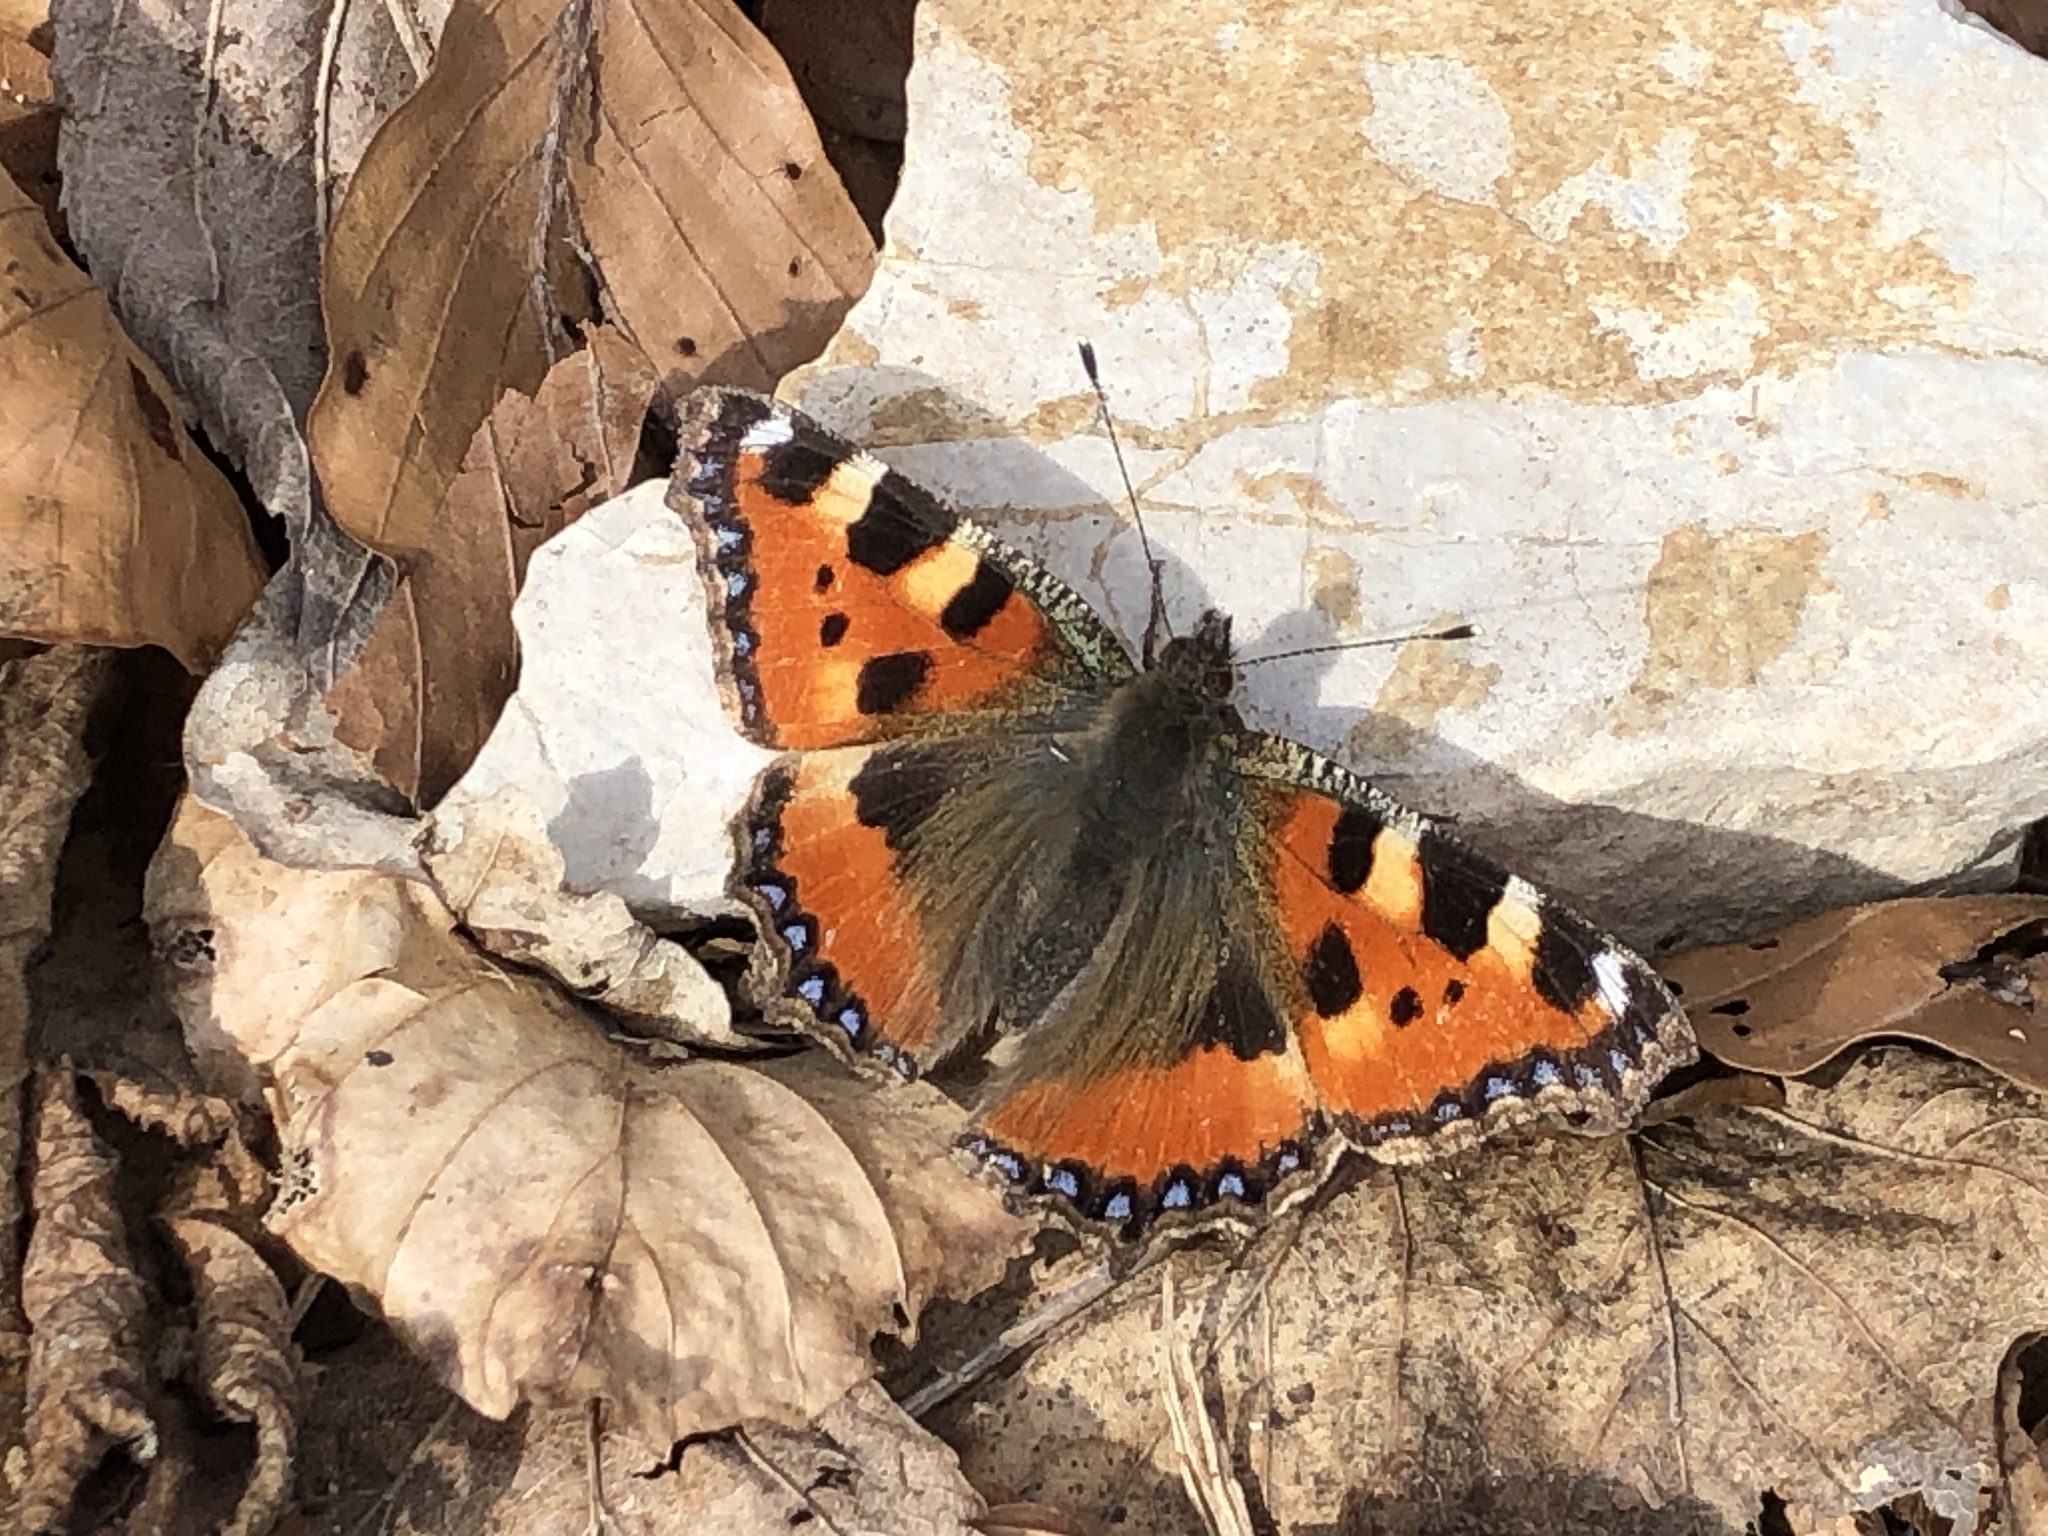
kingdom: Animalia
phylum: Arthropoda
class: Insecta
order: Lepidoptera
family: Nymphalidae
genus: Aglais
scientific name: Aglais urticae
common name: Small tortoiseshell
